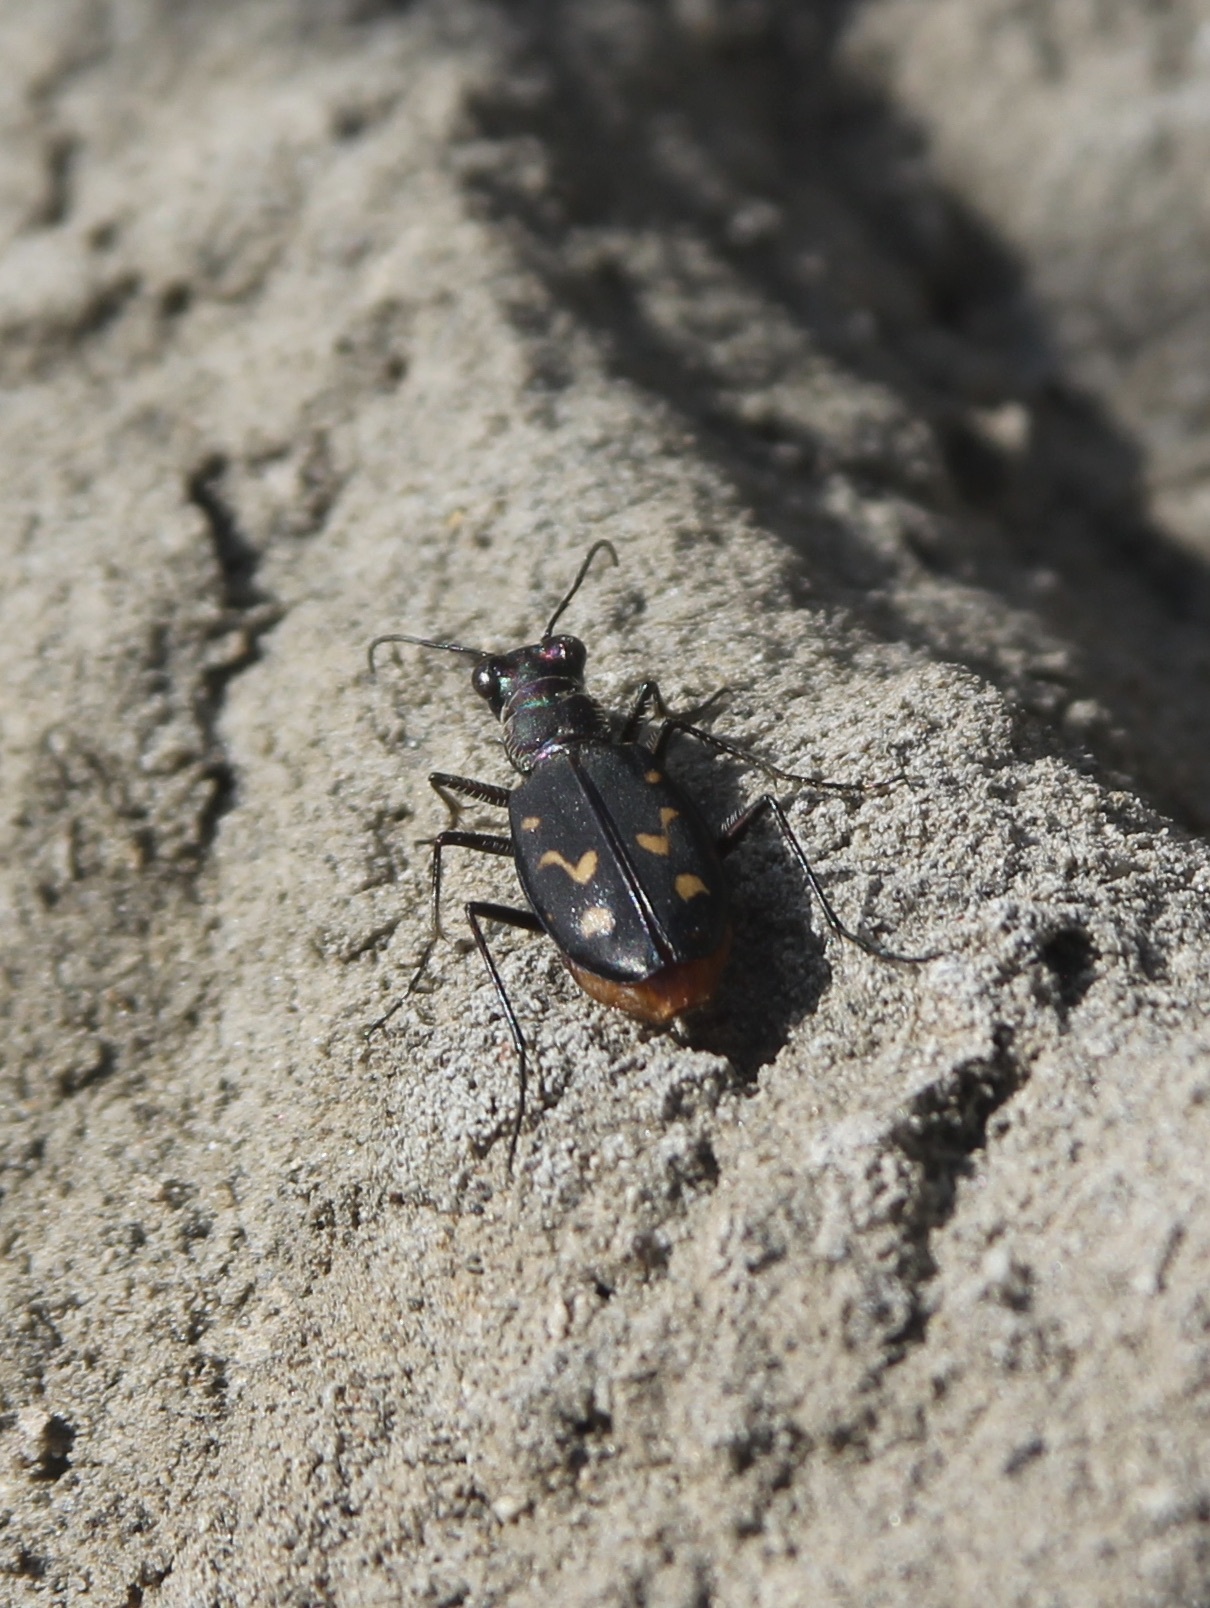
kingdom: Animalia
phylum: Arthropoda
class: Insecta
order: Coleoptera
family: Carabidae
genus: Cicindela
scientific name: Cicindela hemorrhagica
